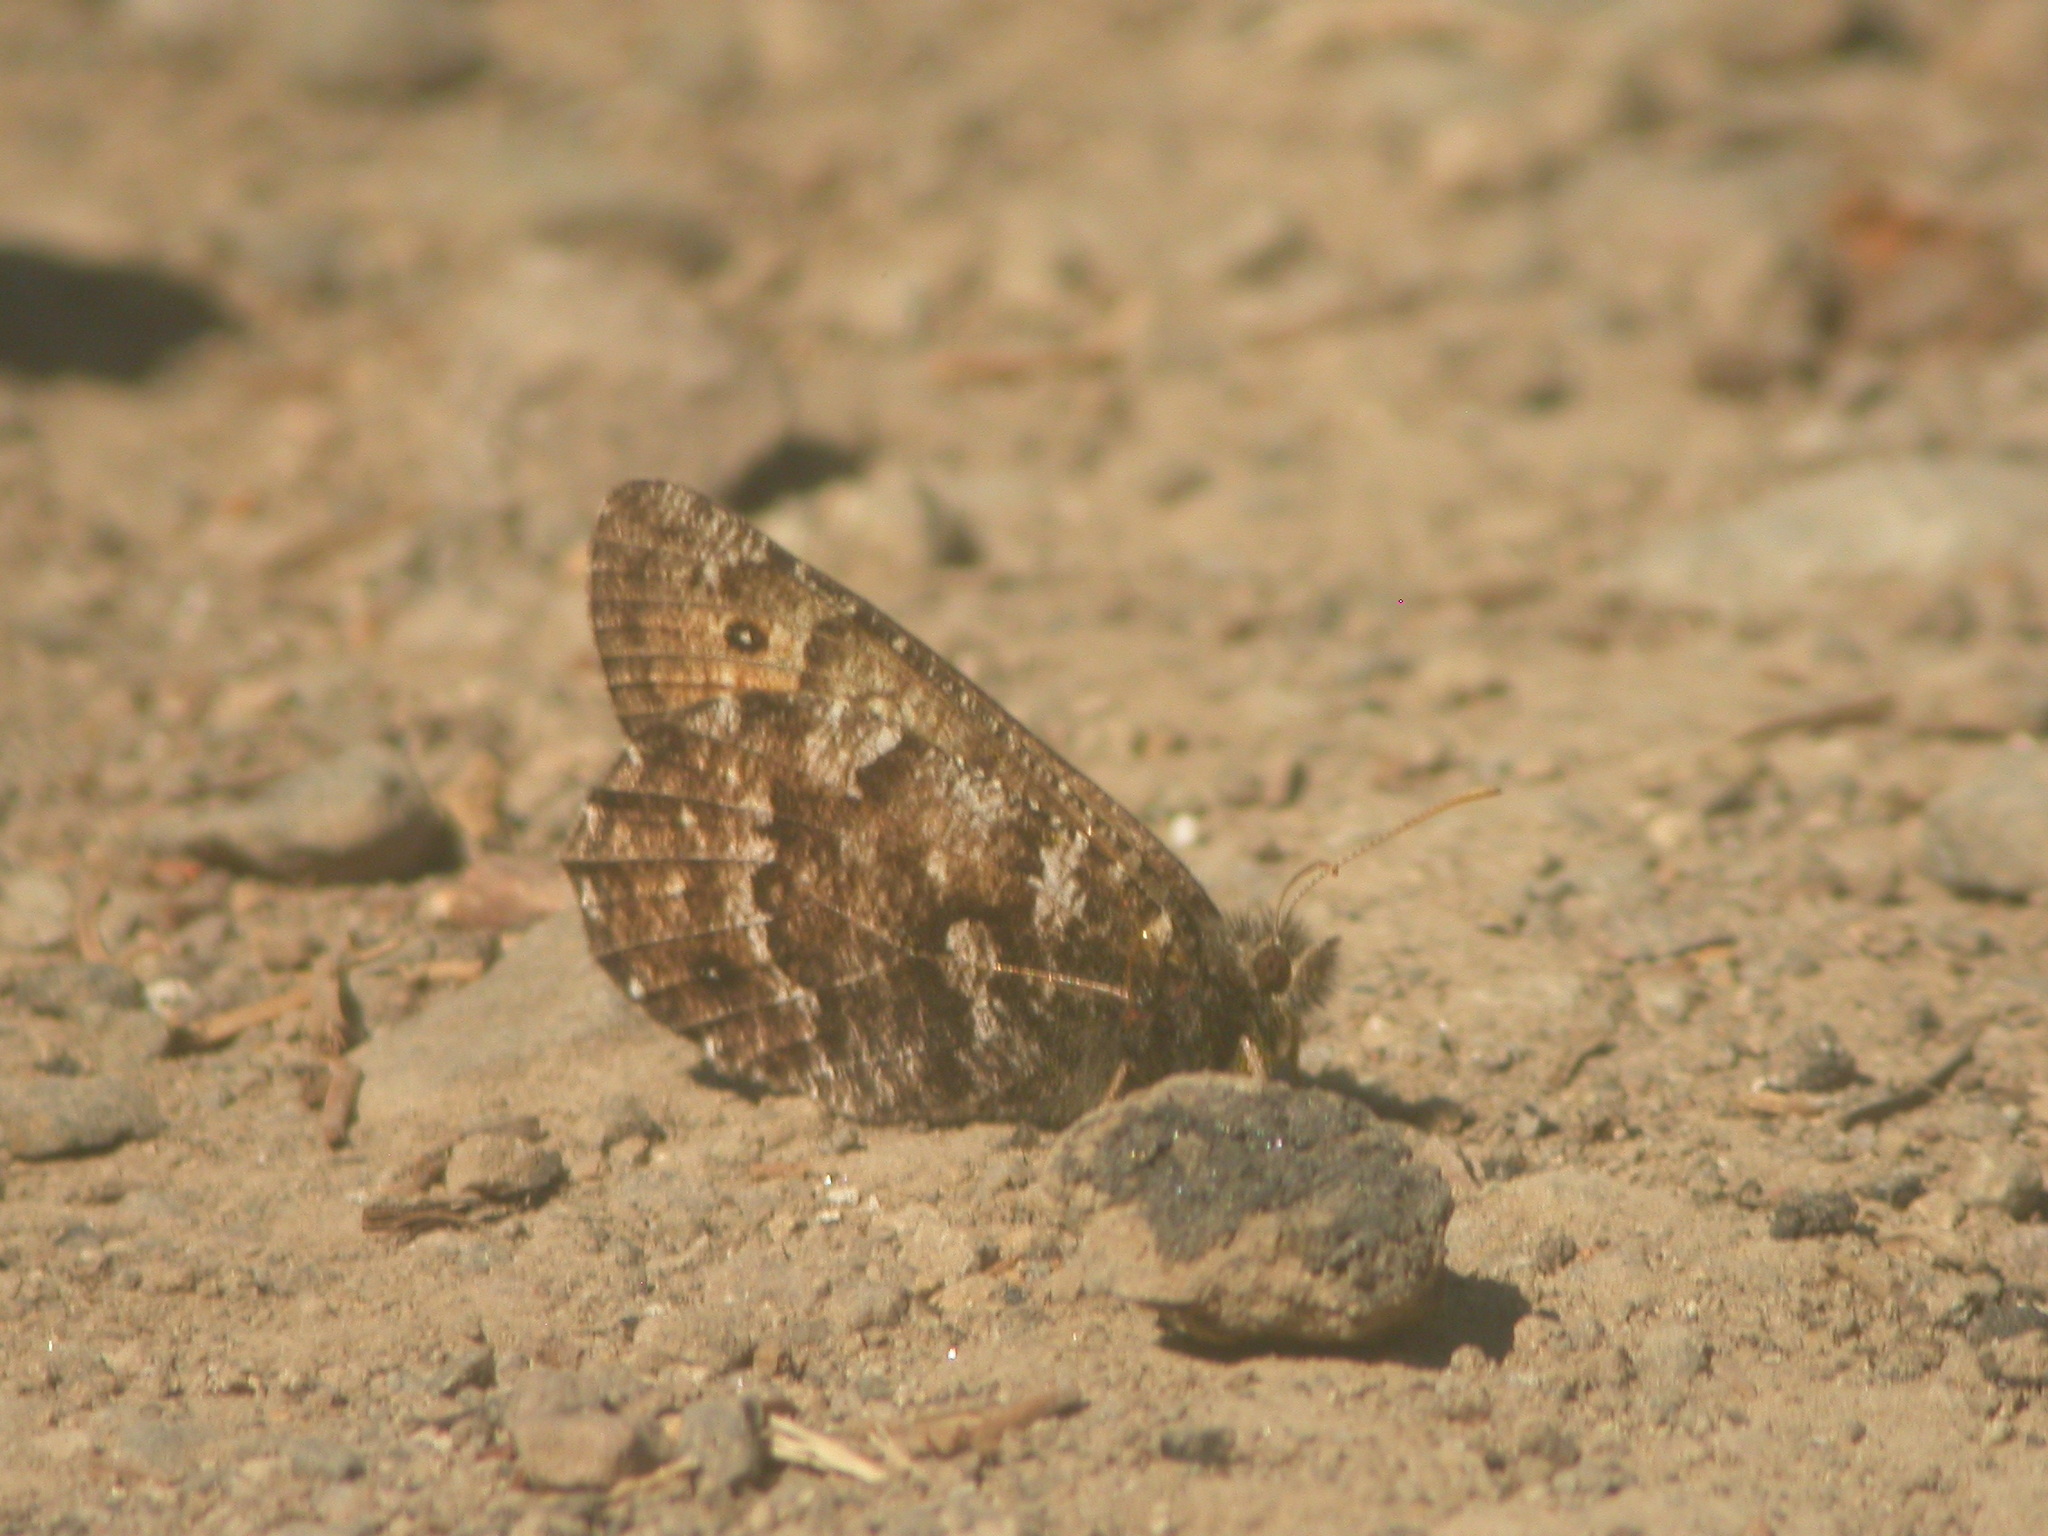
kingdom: Animalia
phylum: Arthropoda
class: Insecta
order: Lepidoptera
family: Nymphalidae
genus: Oeneis
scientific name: Oeneis chryxus
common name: Chryxus arctic
